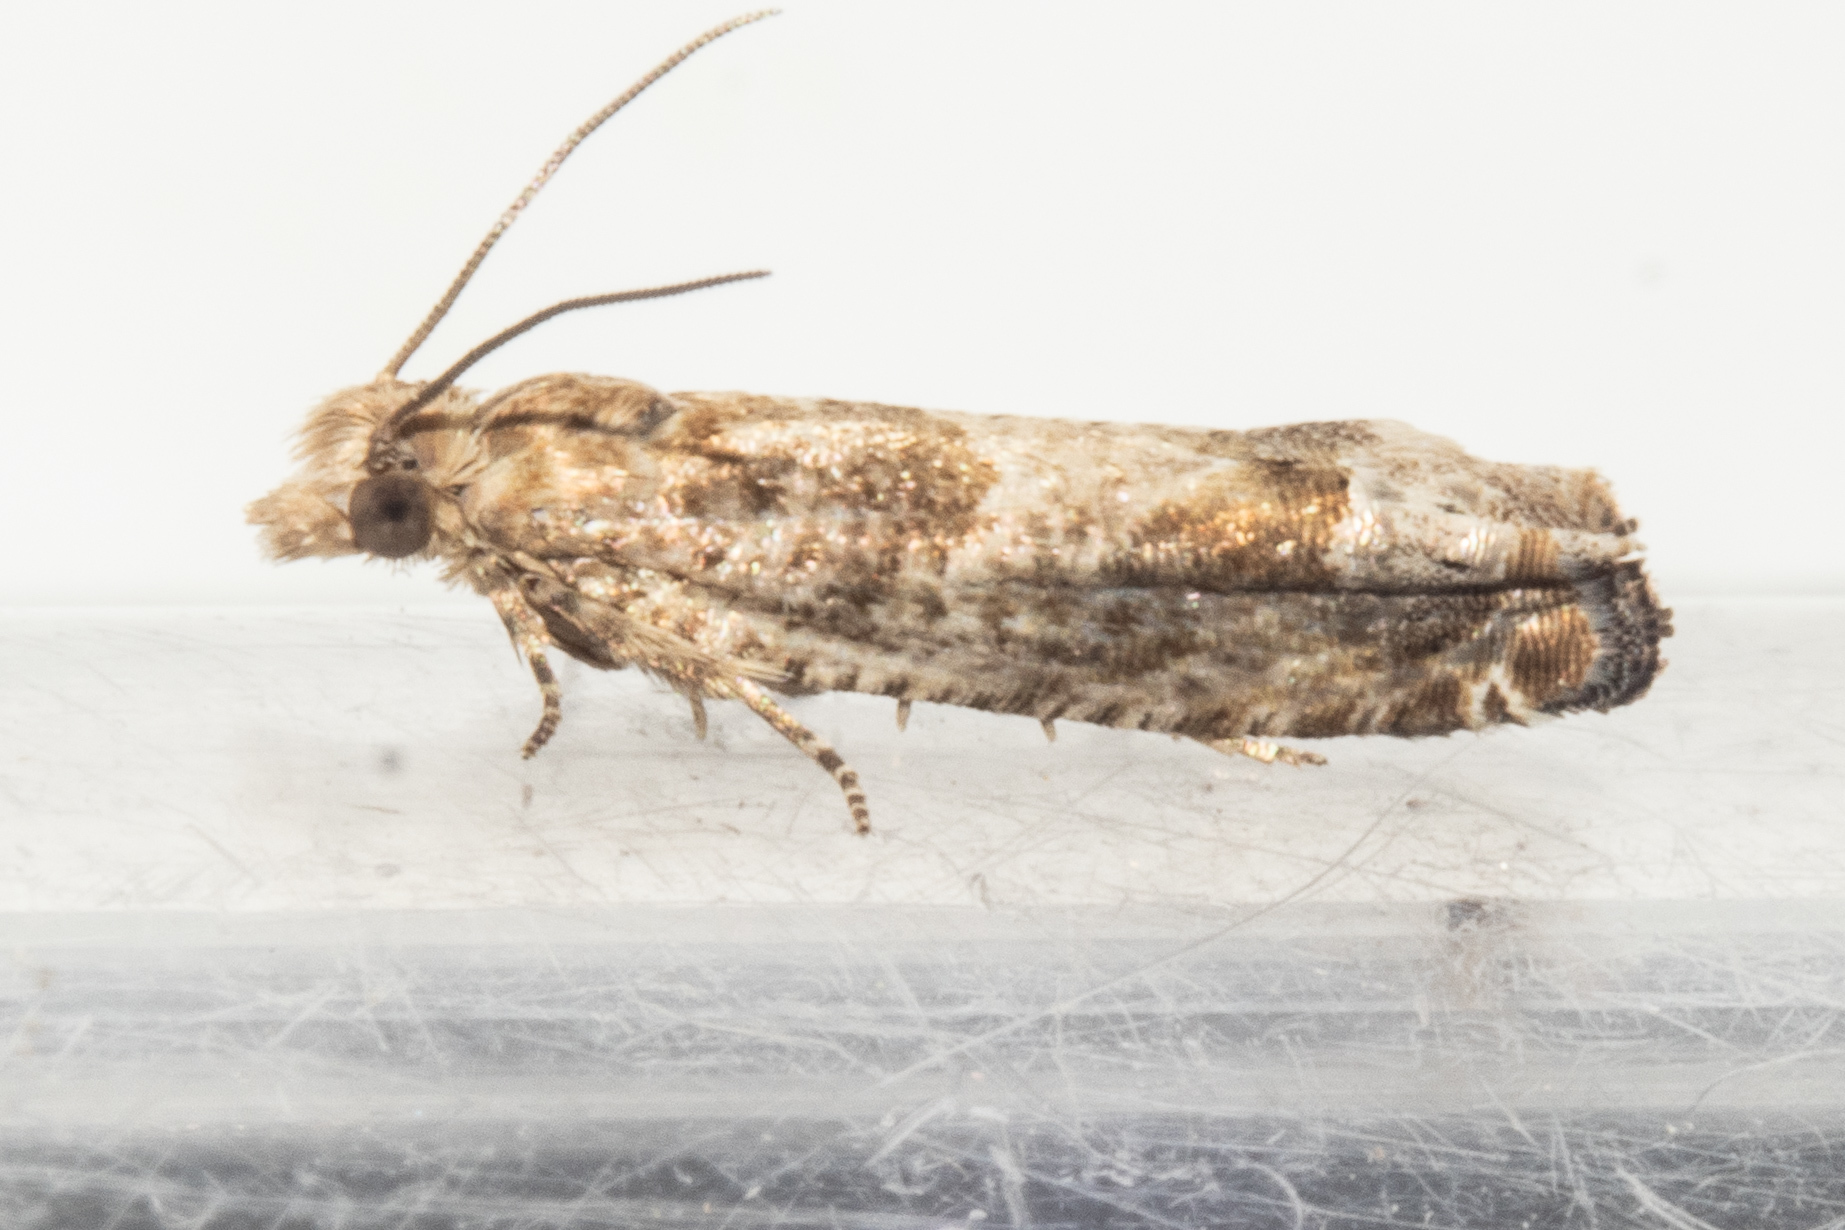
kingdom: Animalia
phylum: Arthropoda
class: Insecta
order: Lepidoptera
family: Tortricidae
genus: Crocidosema
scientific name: Crocidosema plebejana
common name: Southern bell
